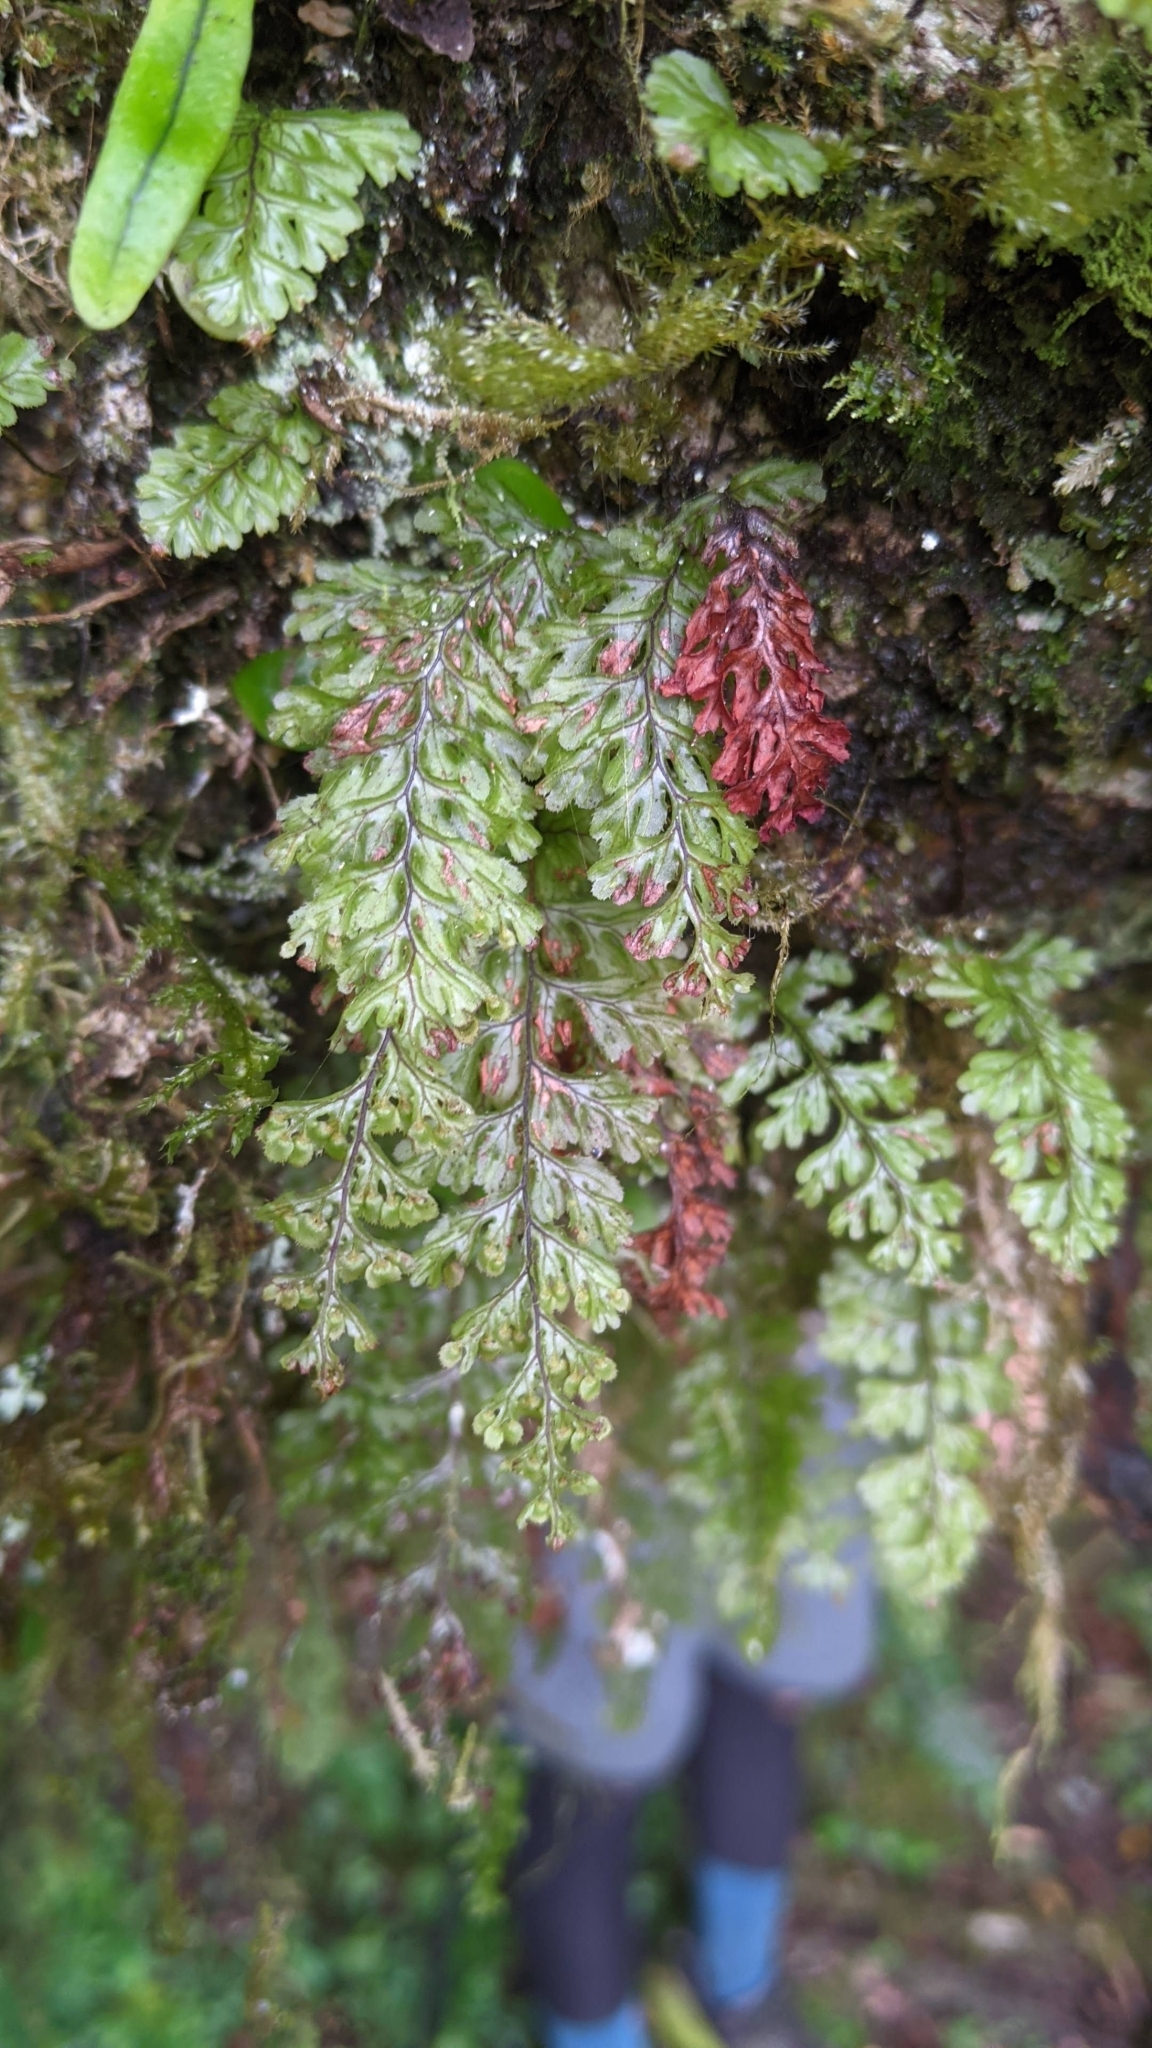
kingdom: Plantae
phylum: Tracheophyta
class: Polypodiopsida
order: Hymenophyllales
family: Hymenophyllaceae
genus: Hymenophyllum
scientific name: Hymenophyllum okadae
